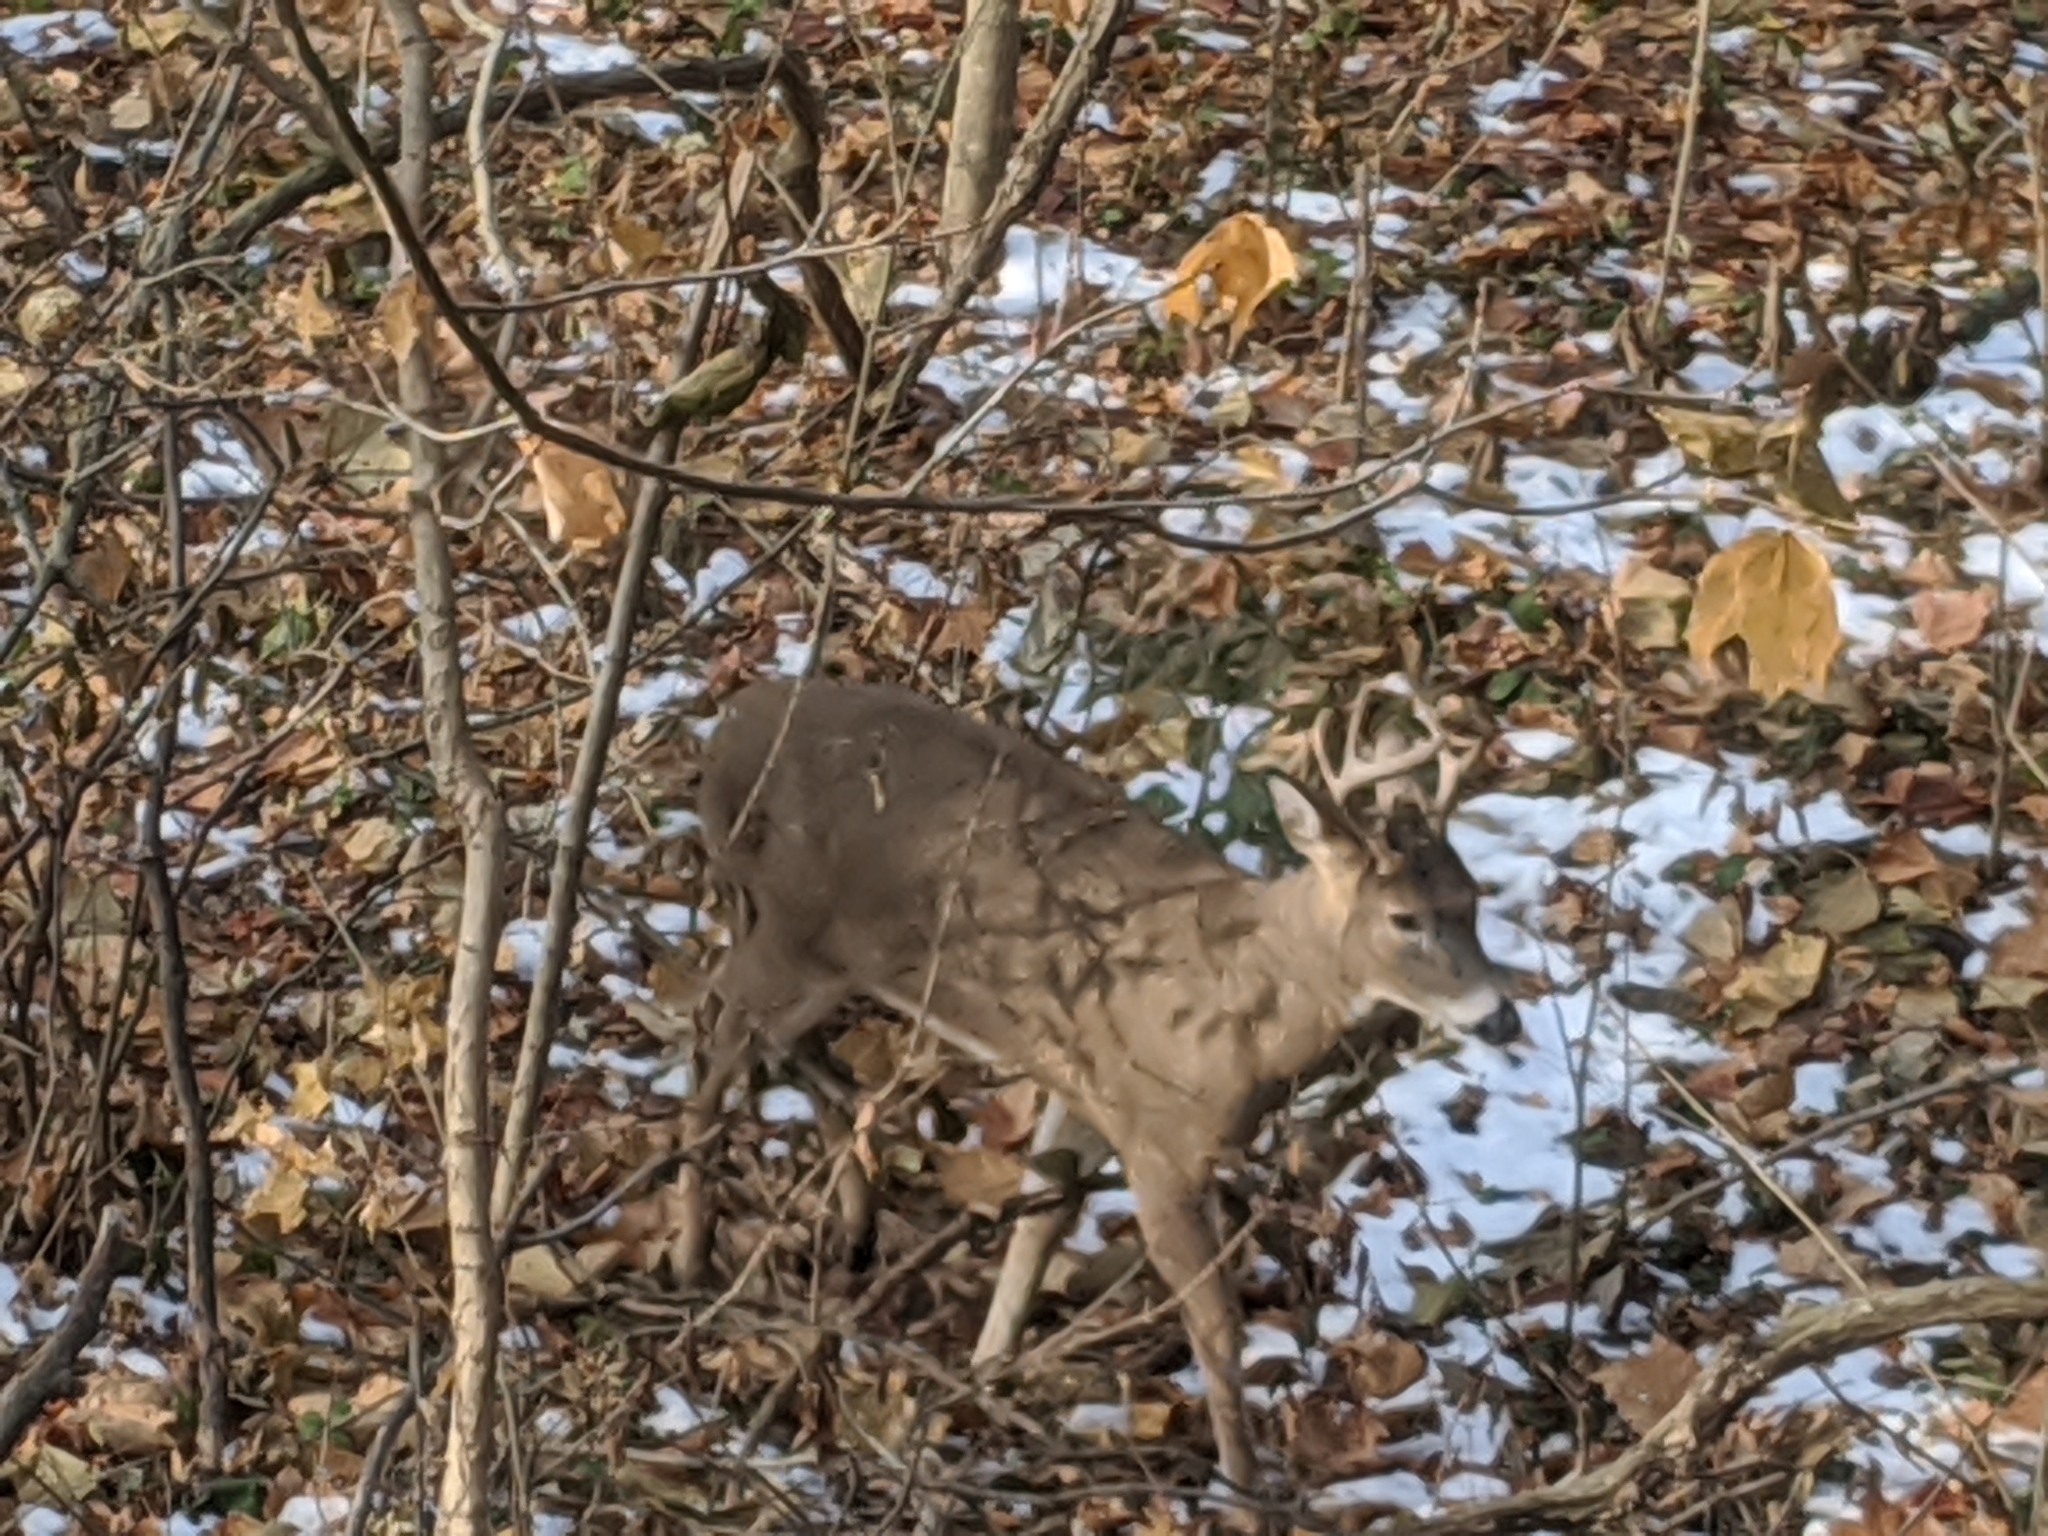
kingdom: Animalia
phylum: Chordata
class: Mammalia
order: Artiodactyla
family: Cervidae
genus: Odocoileus
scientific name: Odocoileus virginianus
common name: White-tailed deer
